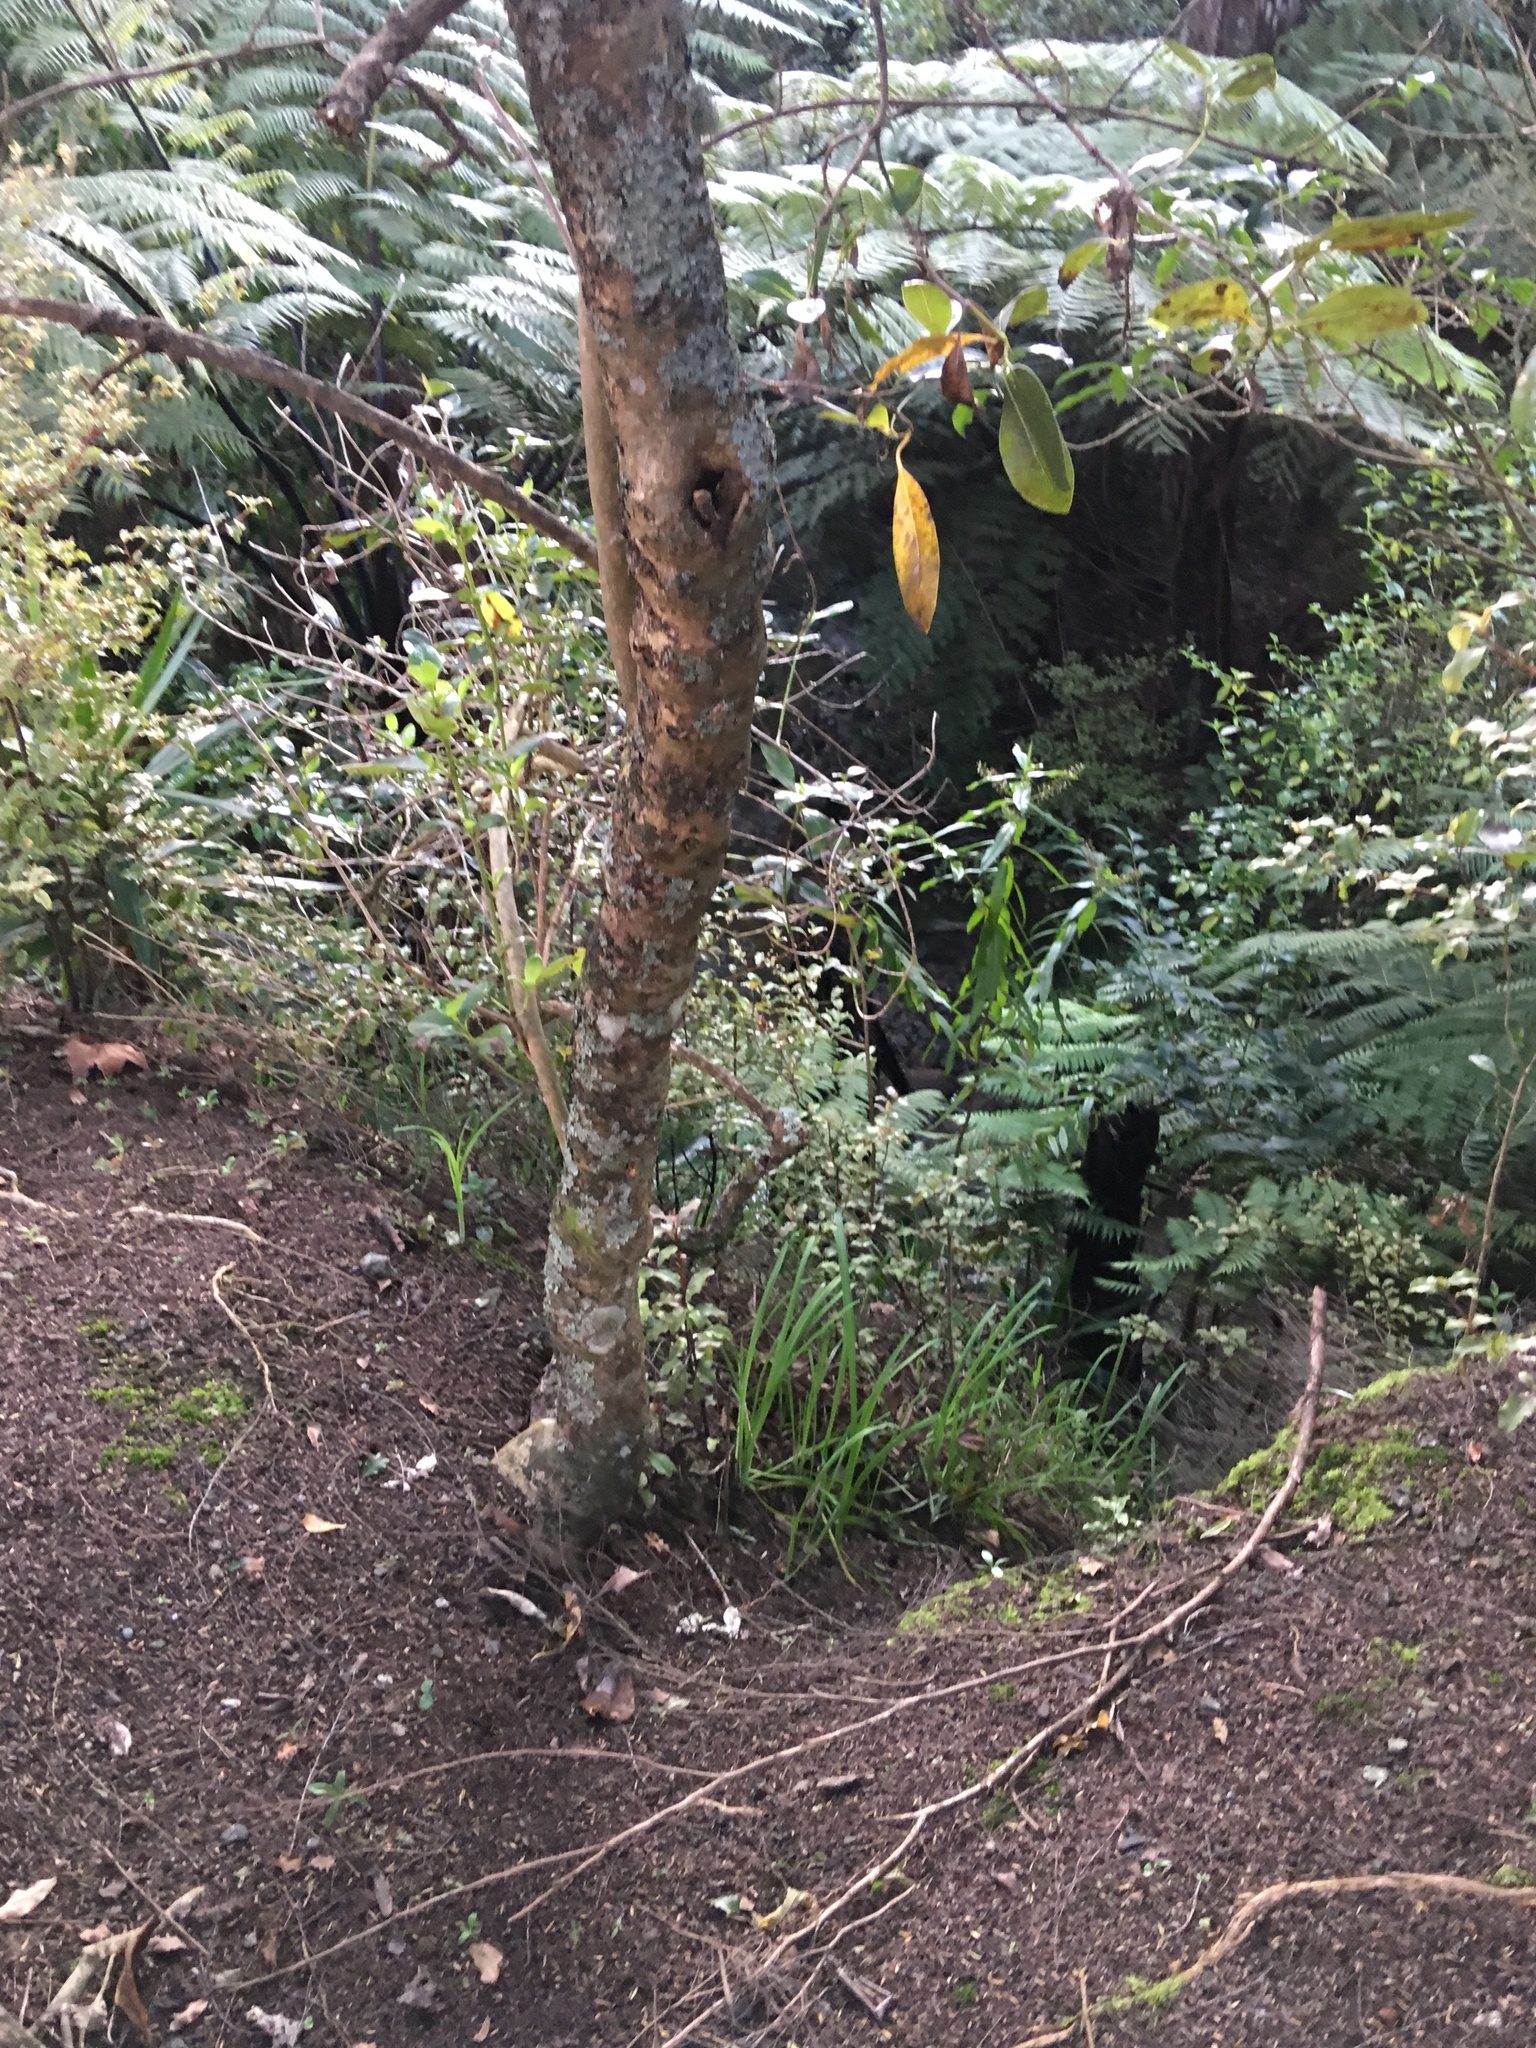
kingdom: Plantae
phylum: Tracheophyta
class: Magnoliopsida
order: Ericales
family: Primulaceae
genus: Myrsine
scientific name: Myrsine australis
